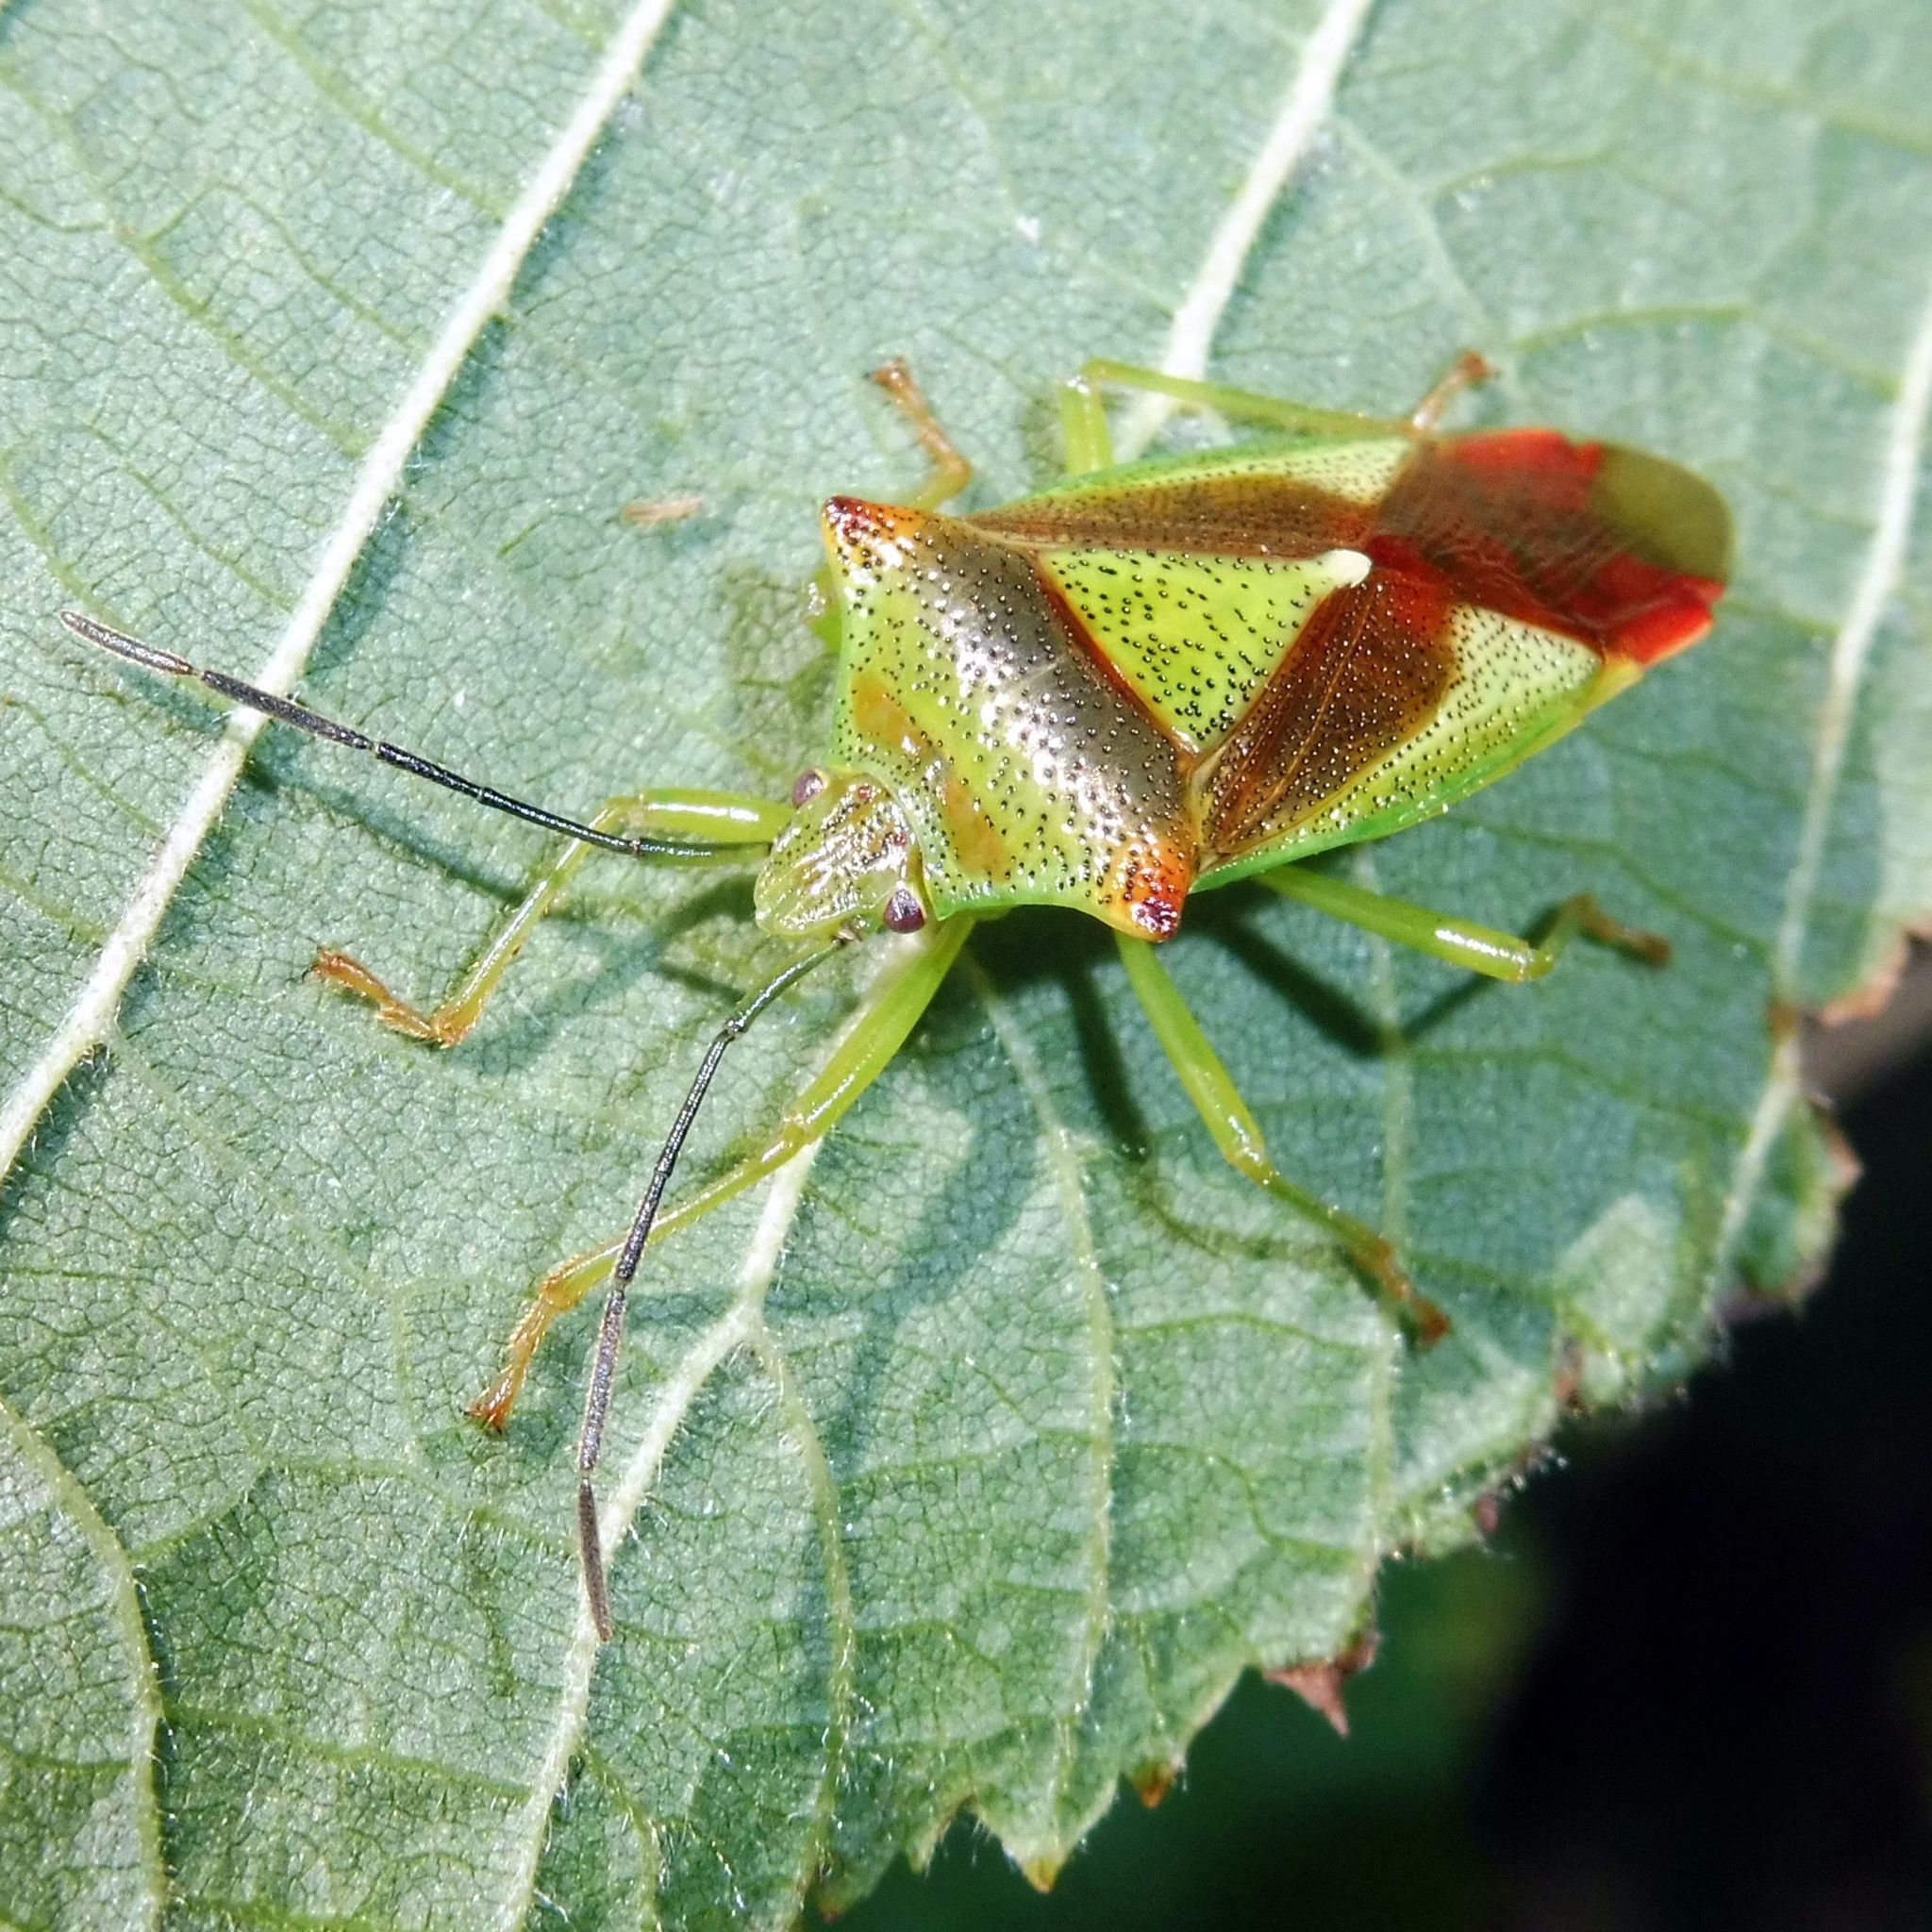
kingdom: Animalia
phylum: Arthropoda
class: Insecta
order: Hemiptera
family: Acanthosomatidae
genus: Acanthosoma
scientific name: Acanthosoma haemorrhoidale
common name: Hawthorn shieldbug
